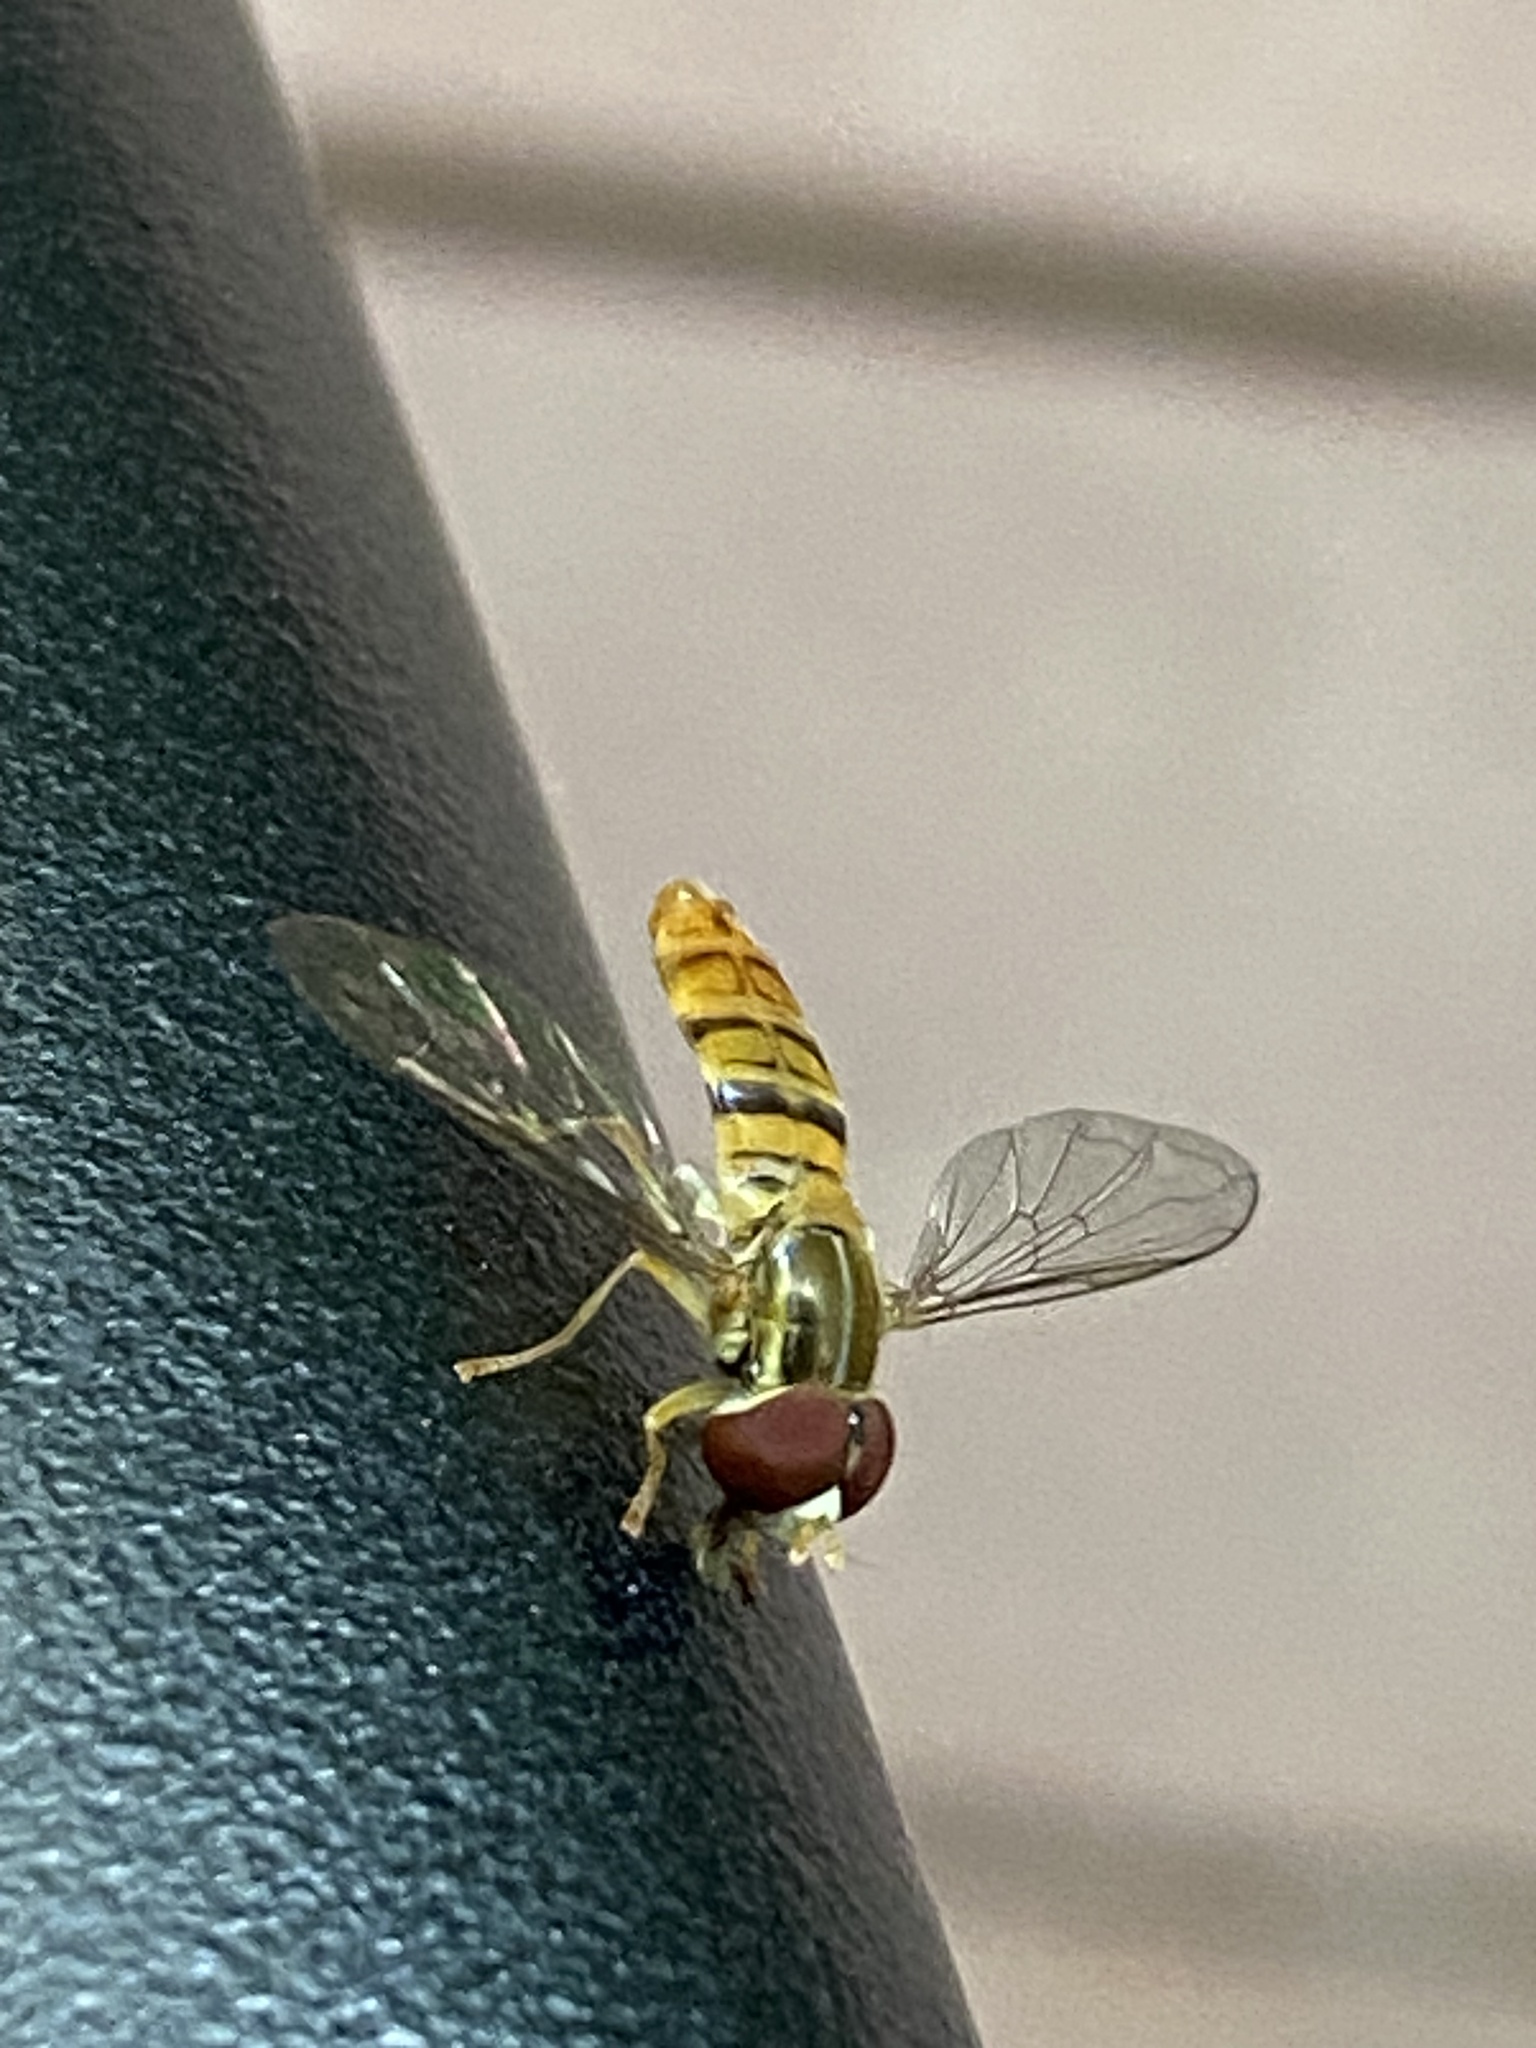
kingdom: Animalia
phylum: Arthropoda
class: Insecta
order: Diptera
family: Syrphidae
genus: Toxomerus
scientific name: Toxomerus politus
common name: Maize calligrapher
